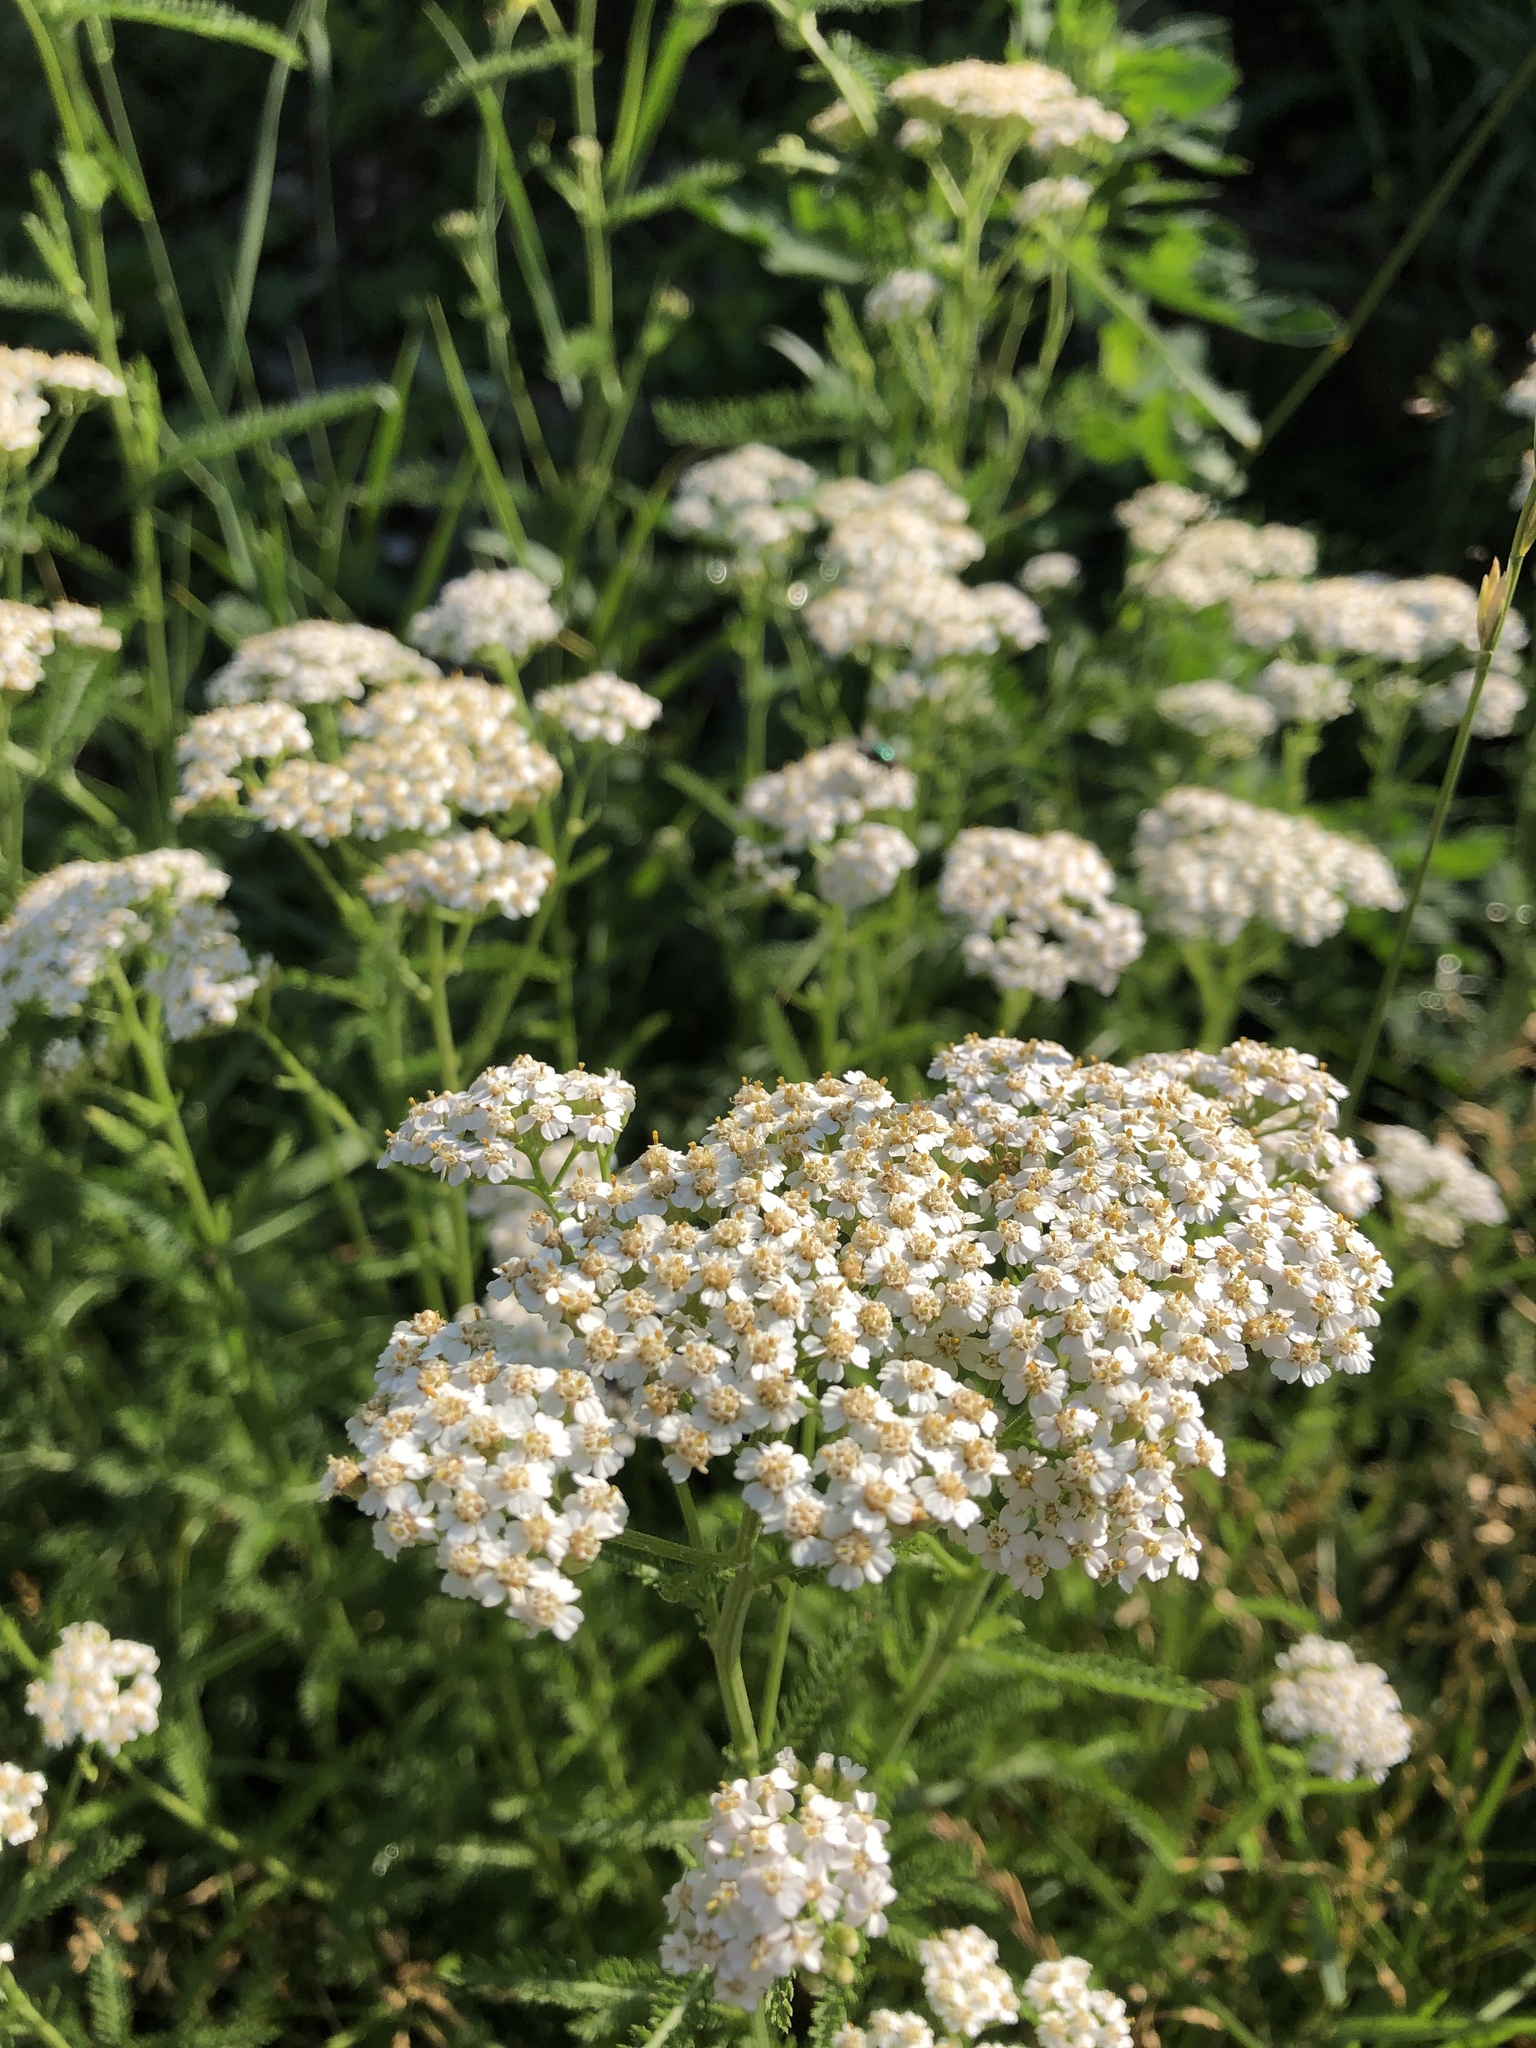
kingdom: Plantae
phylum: Tracheophyta
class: Magnoliopsida
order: Asterales
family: Asteraceae
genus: Achillea
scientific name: Achillea millefolium
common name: Yarrow
